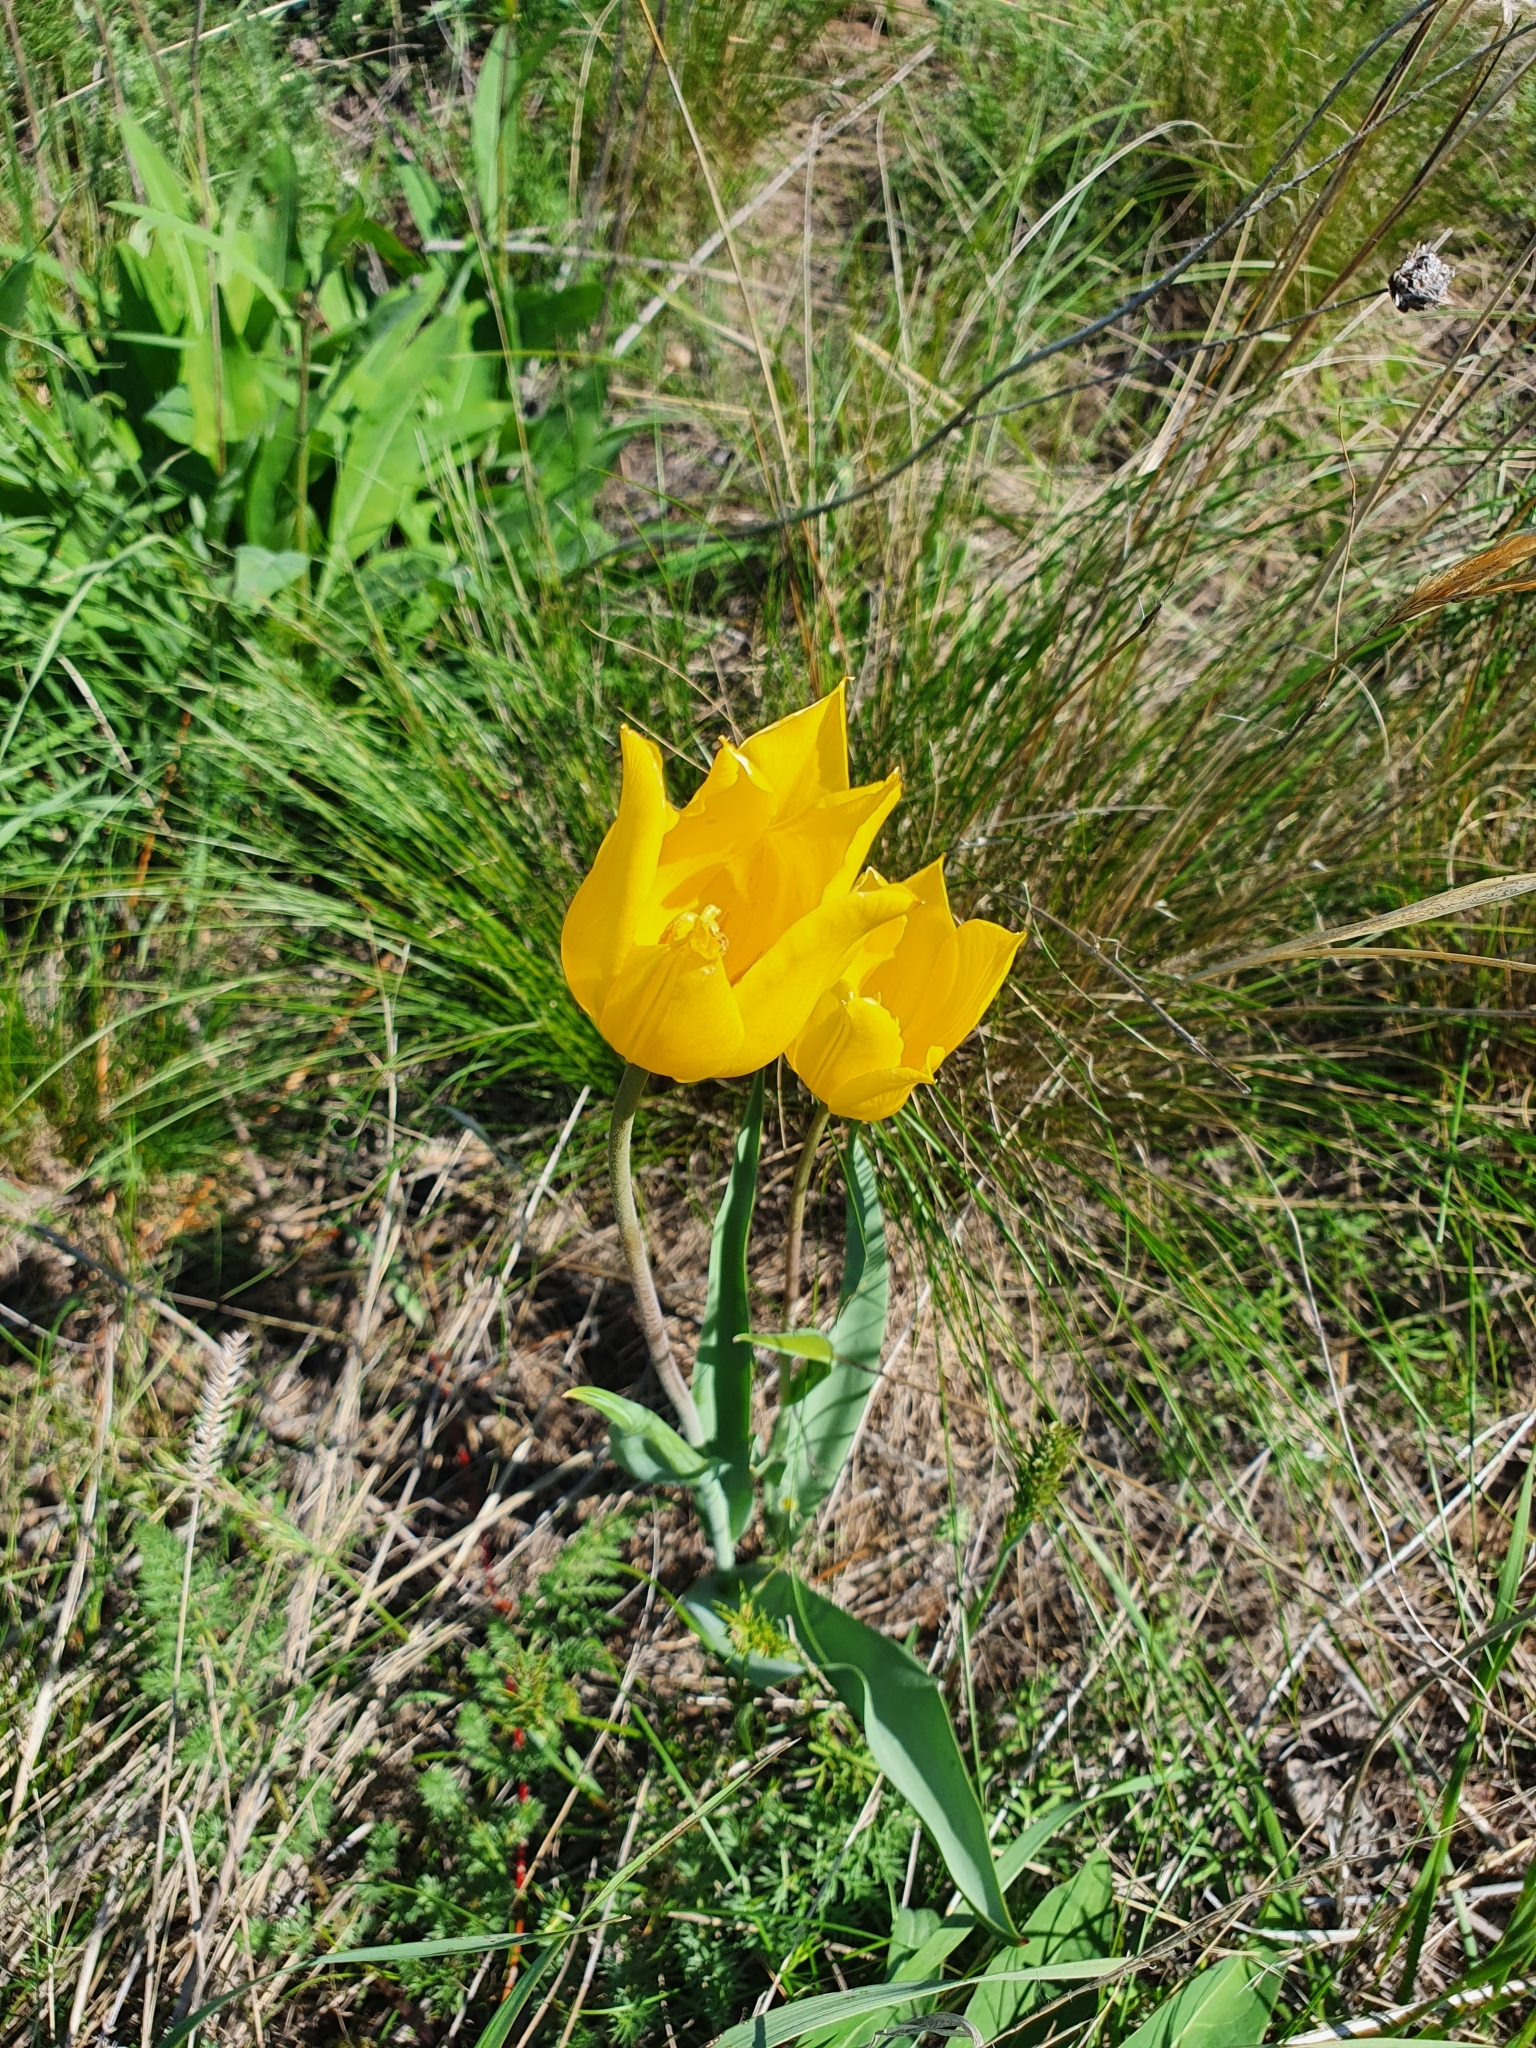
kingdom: Plantae
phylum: Tracheophyta
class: Liliopsida
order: Liliales
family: Liliaceae
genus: Tulipa
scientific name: Tulipa suaveolens
